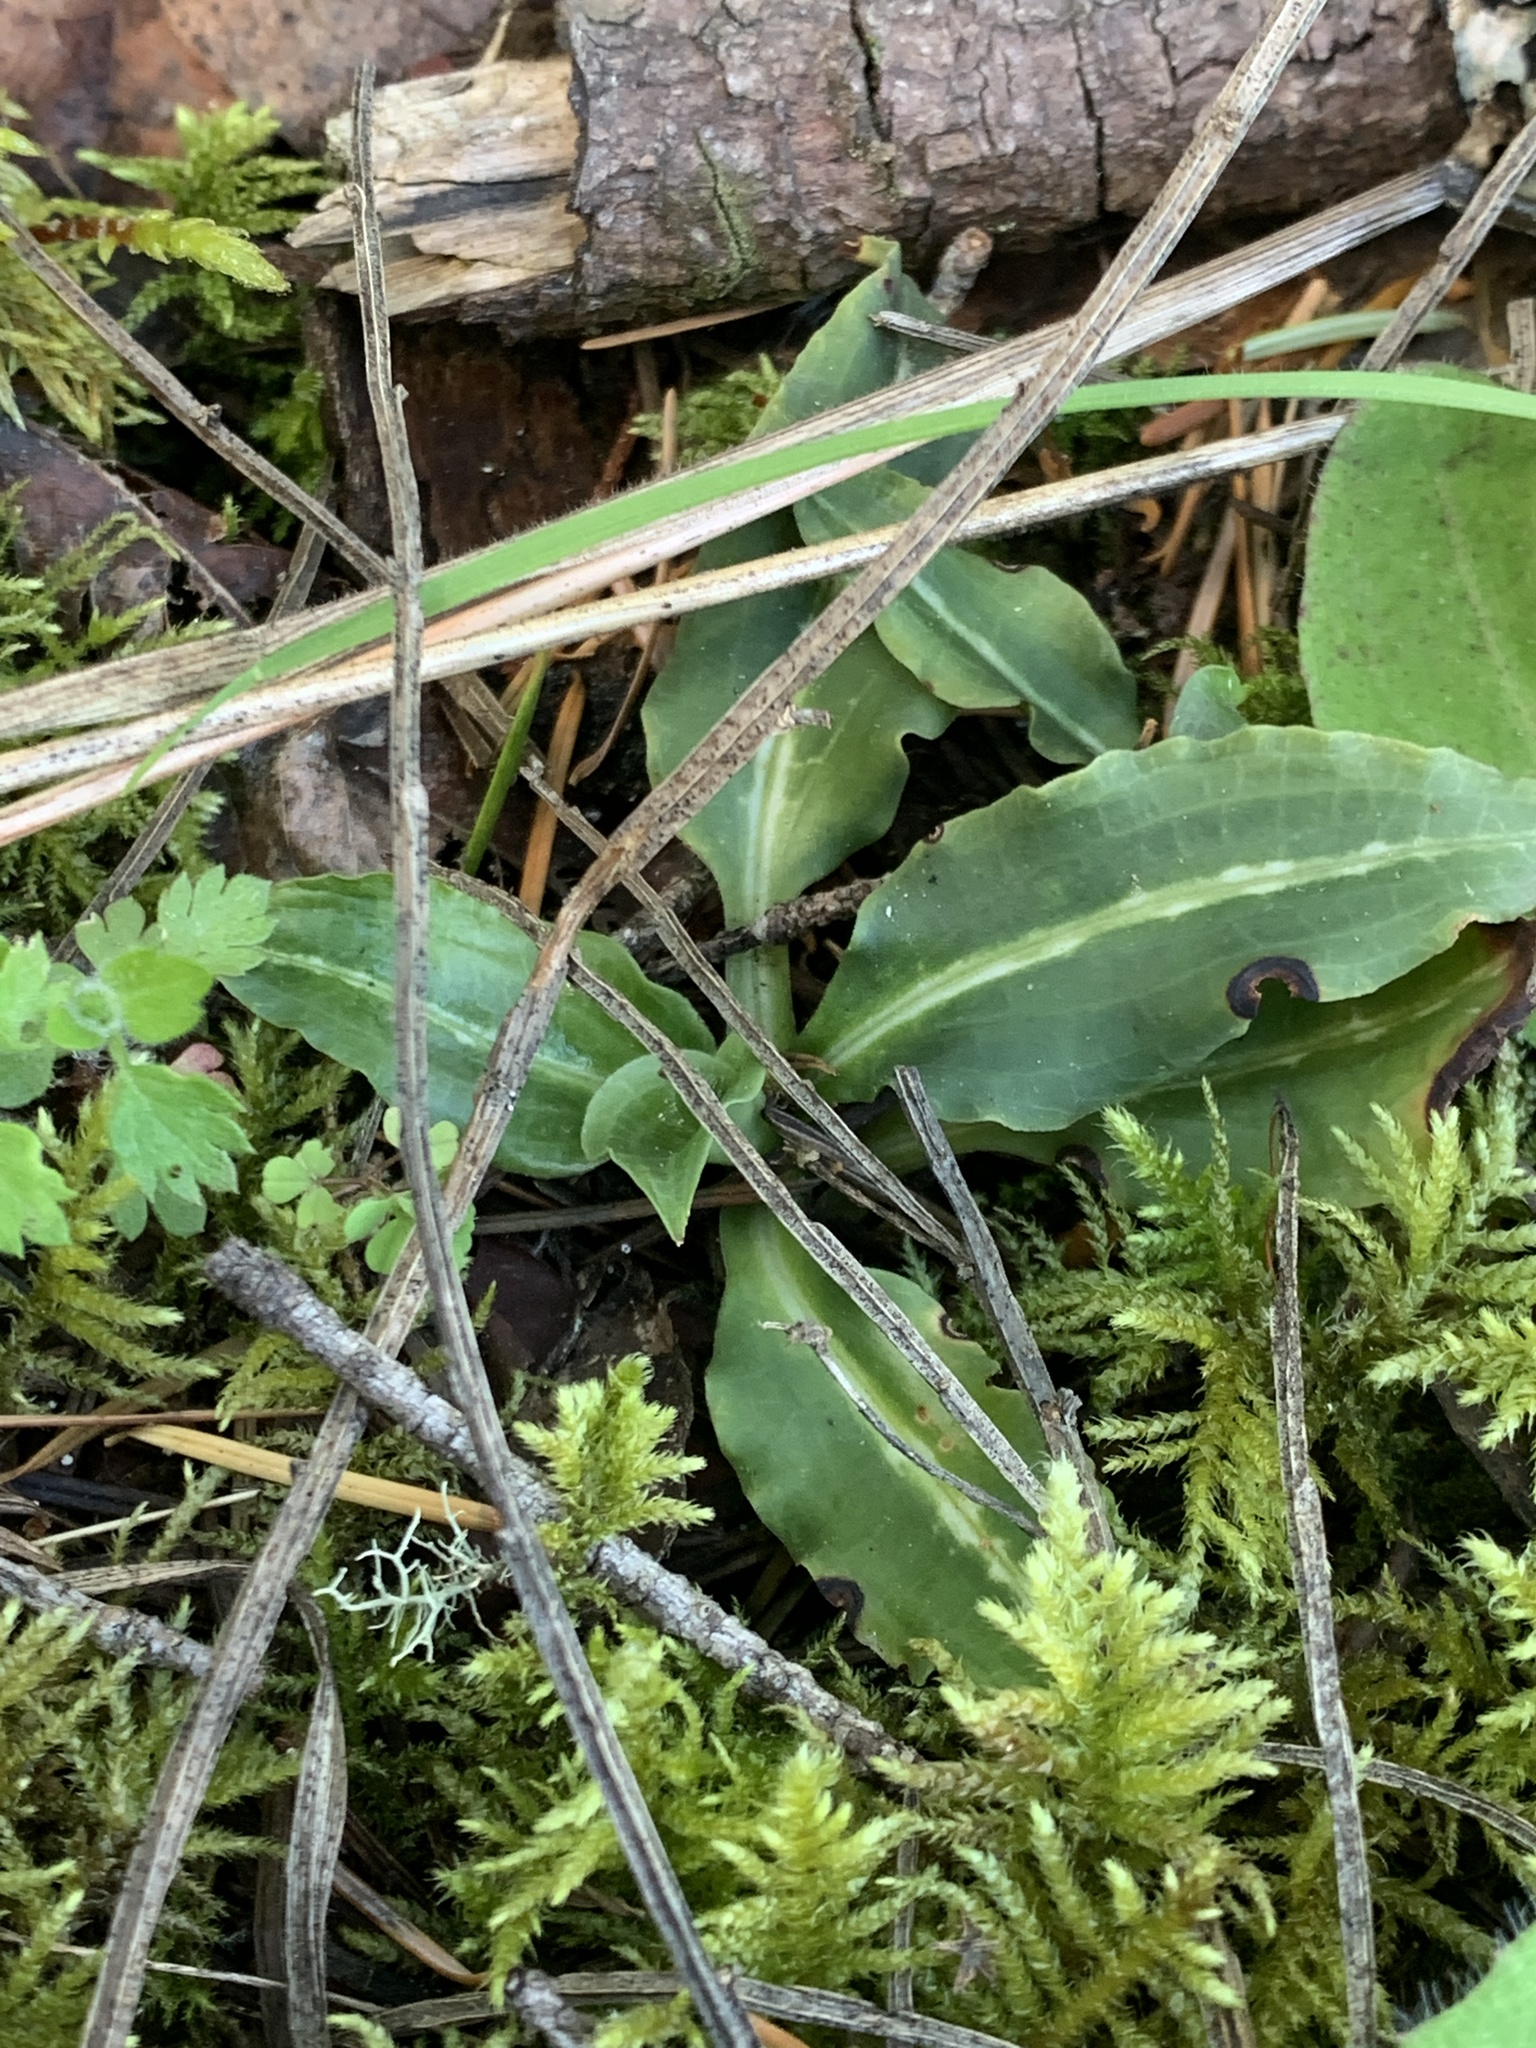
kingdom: Plantae
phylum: Tracheophyta
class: Liliopsida
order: Asparagales
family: Orchidaceae
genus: Goodyera
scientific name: Goodyera oblongifolia
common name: Giant rattlesnake-plantain
